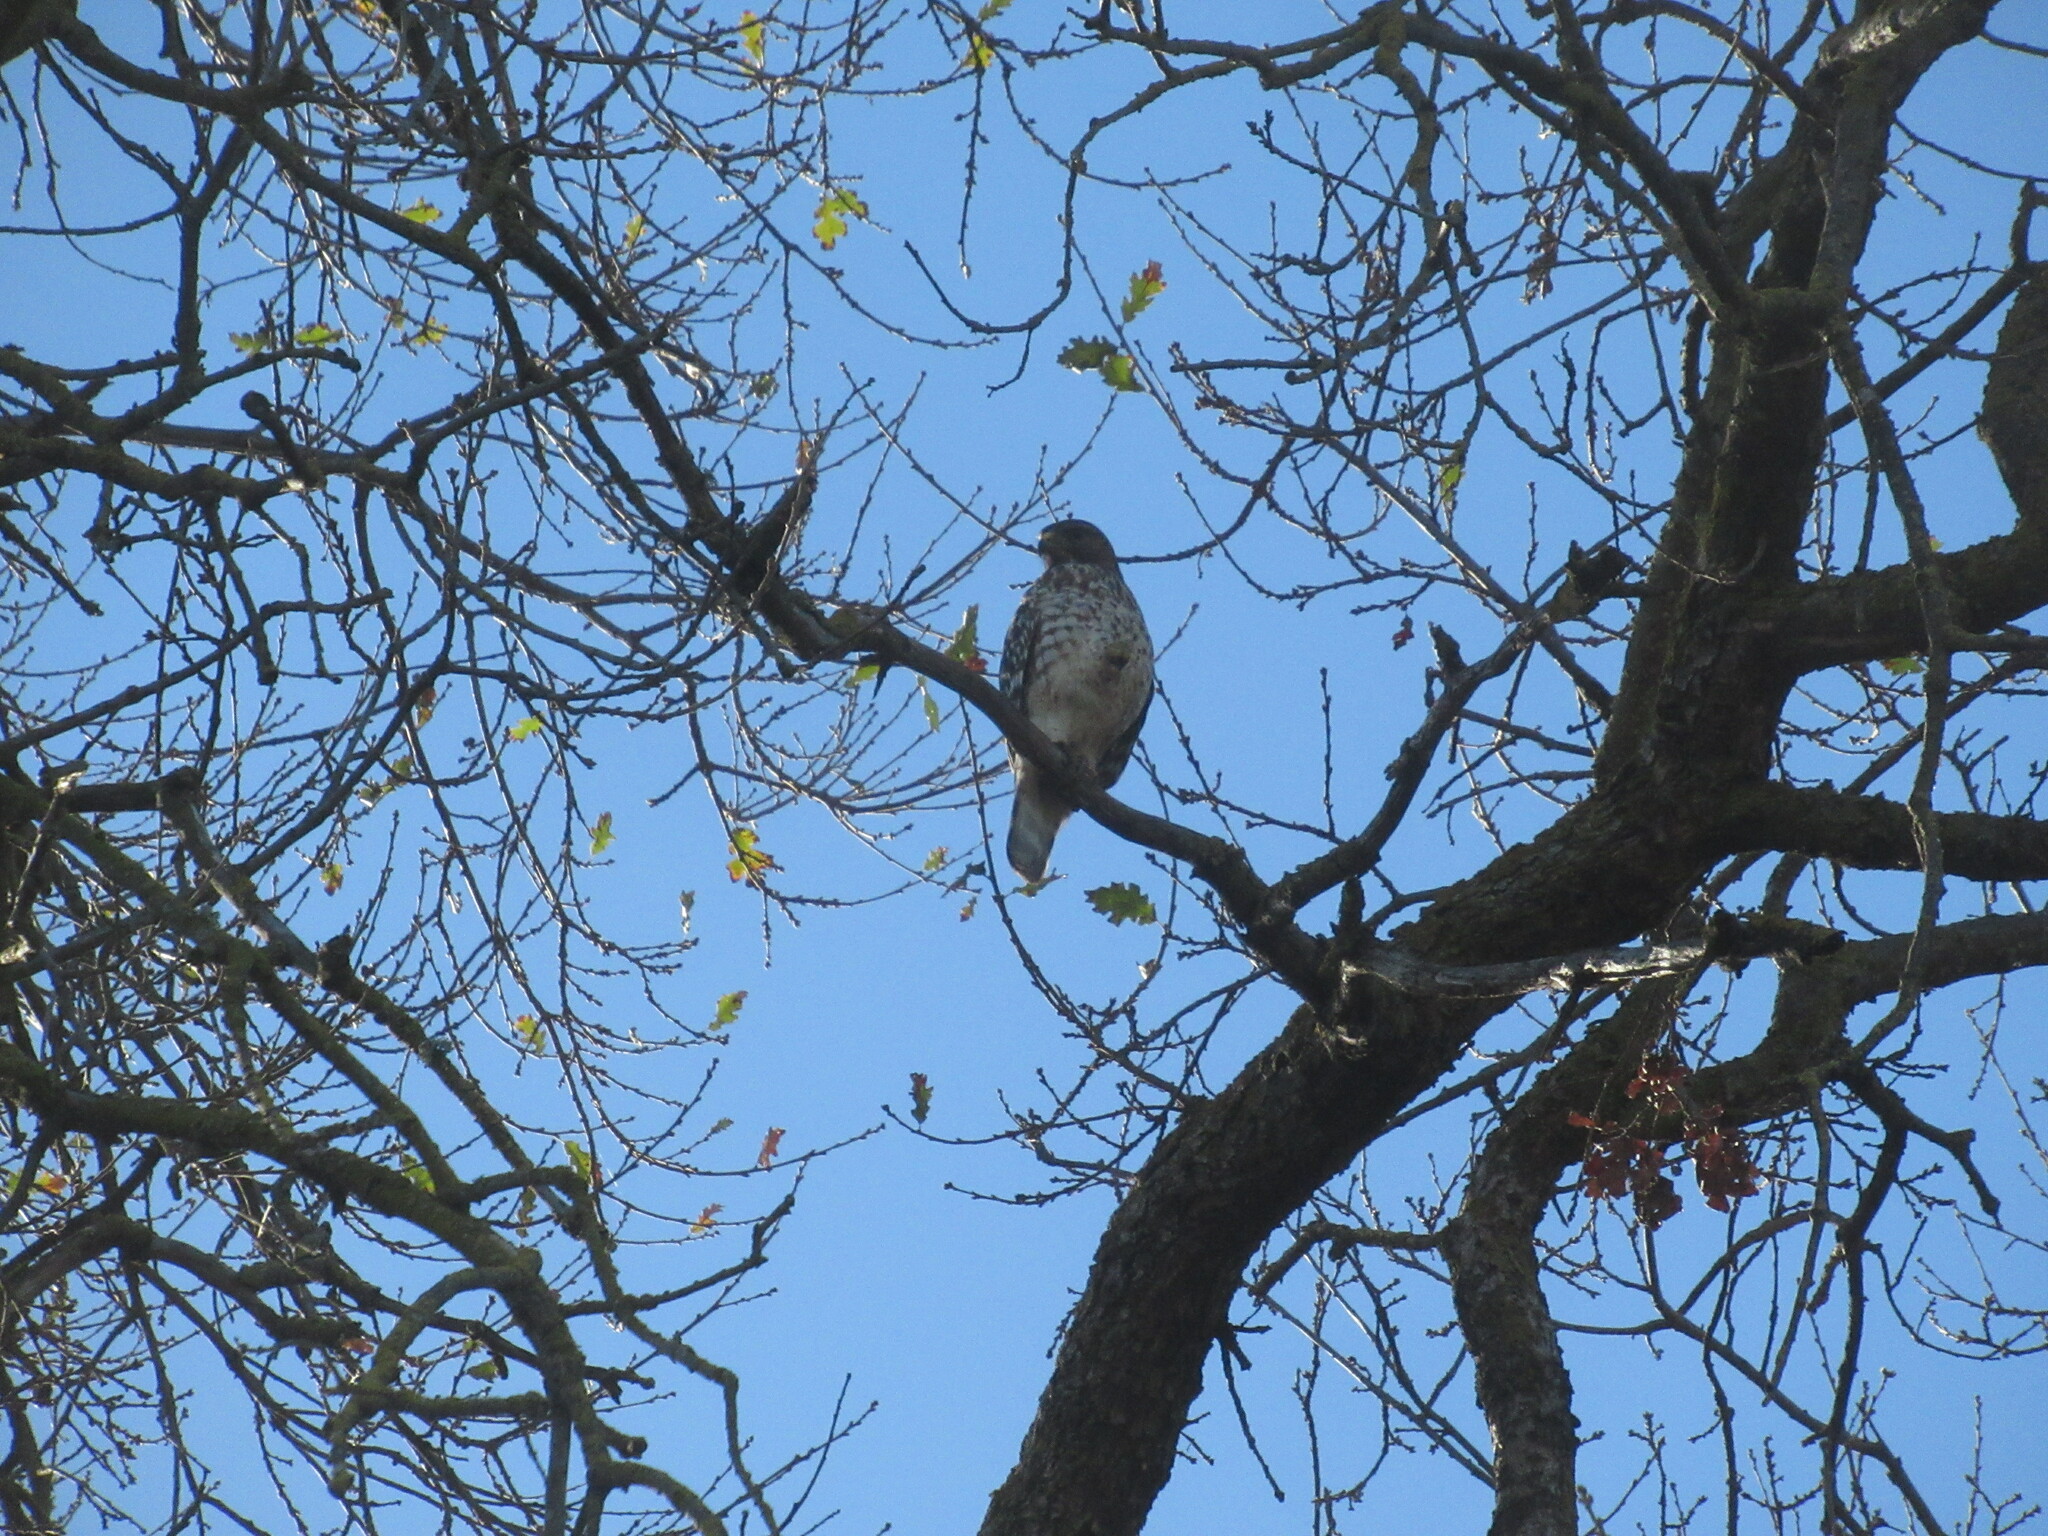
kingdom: Animalia
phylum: Chordata
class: Aves
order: Accipitriformes
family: Accipitridae
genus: Buteo
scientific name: Buteo lineatus
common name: Red-shouldered hawk
